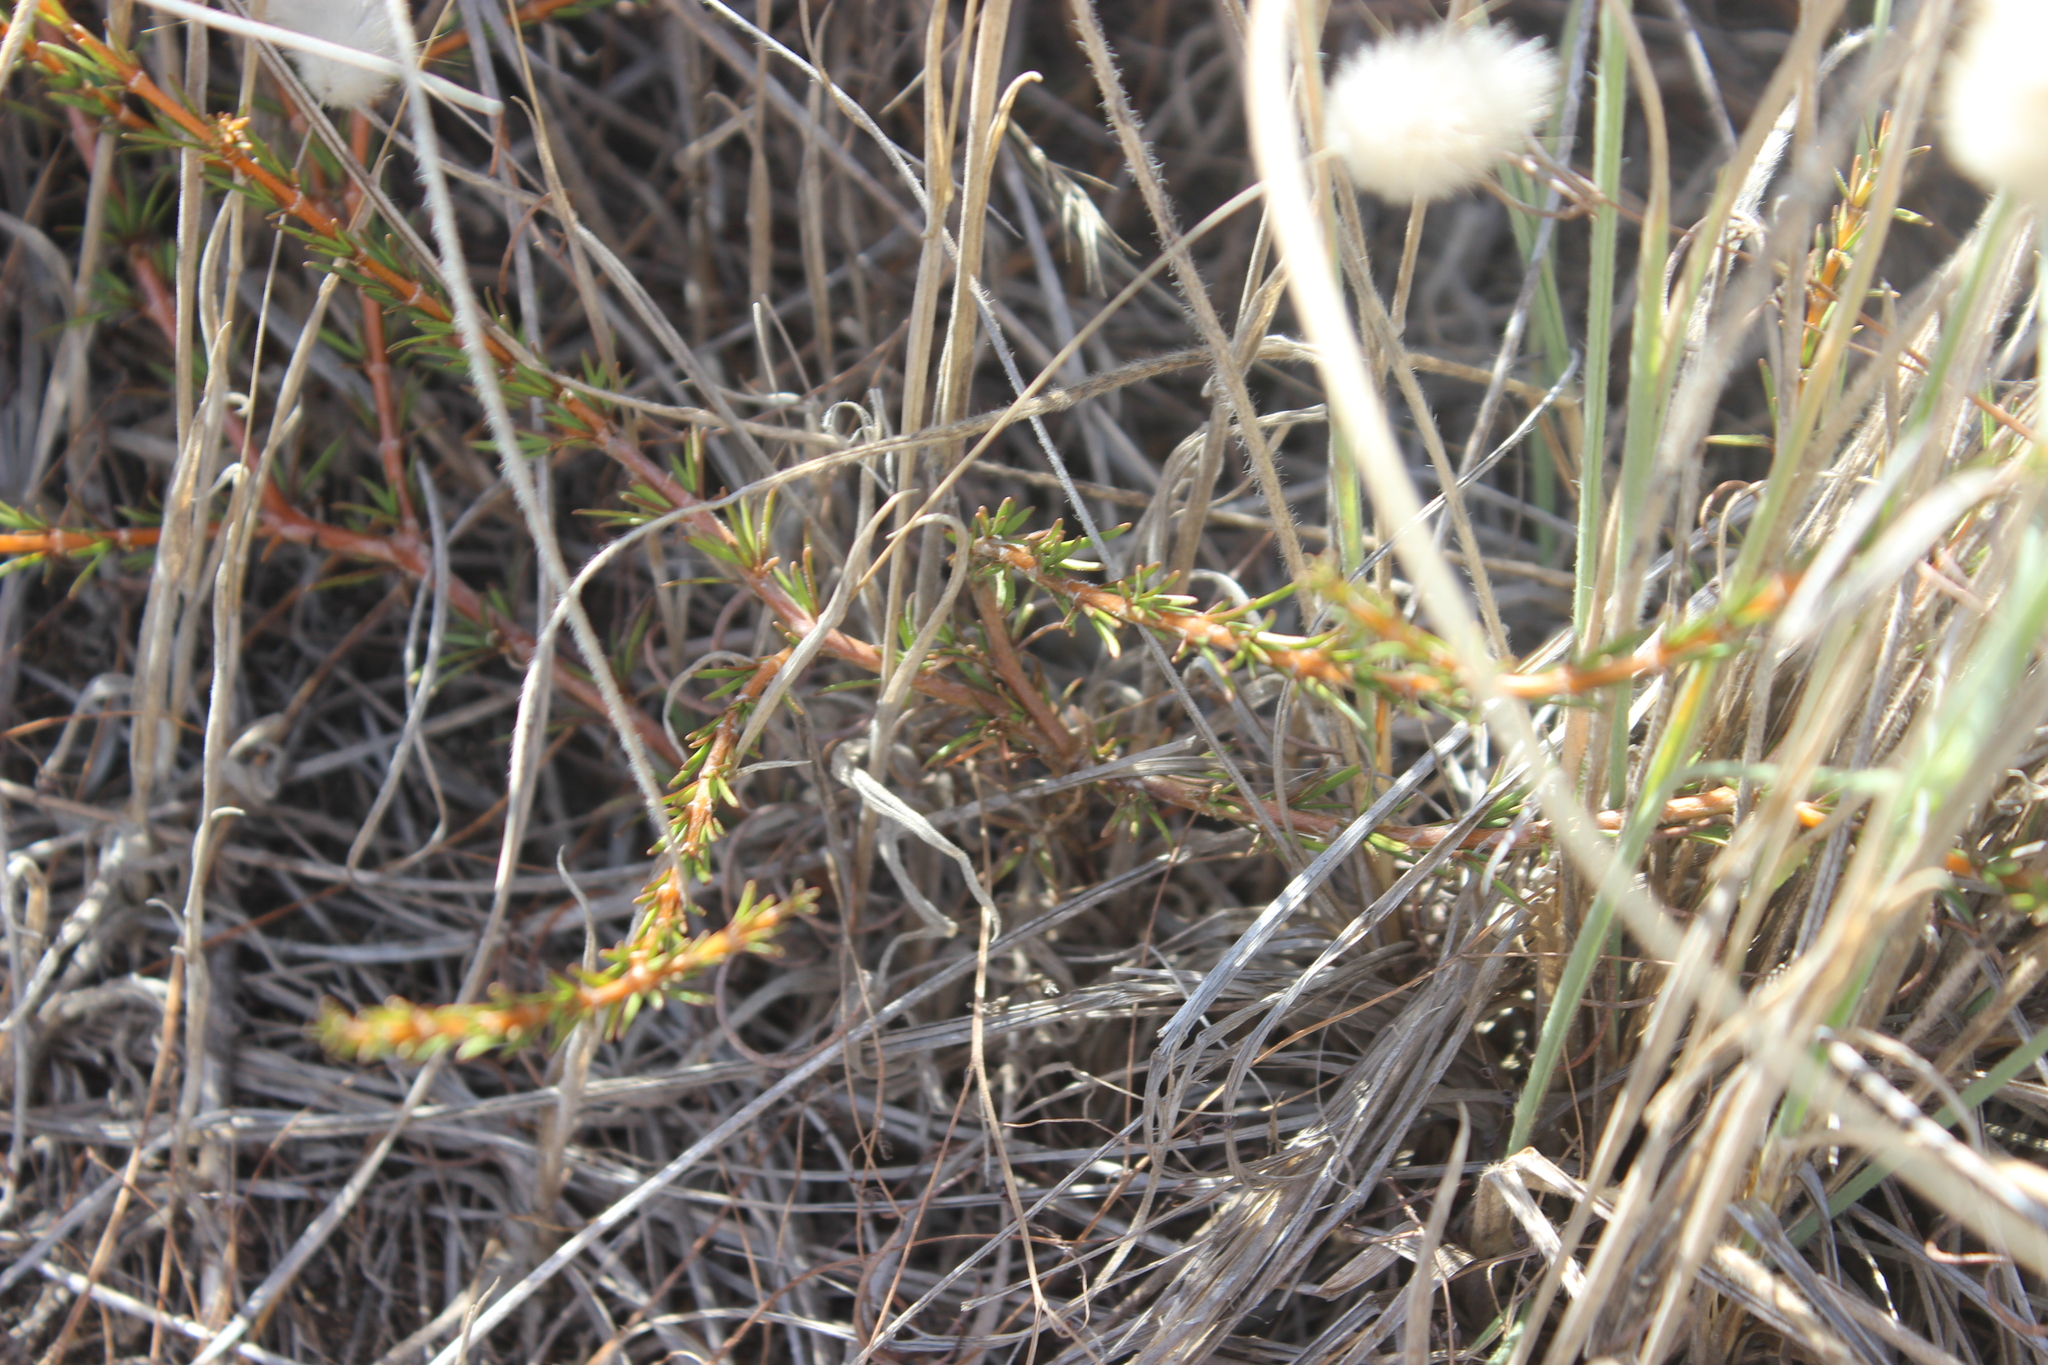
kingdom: Plantae
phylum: Tracheophyta
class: Magnoliopsida
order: Gentianales
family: Rubiaceae
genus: Coprosma
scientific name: Coprosma acerosa
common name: Sand coprosma
